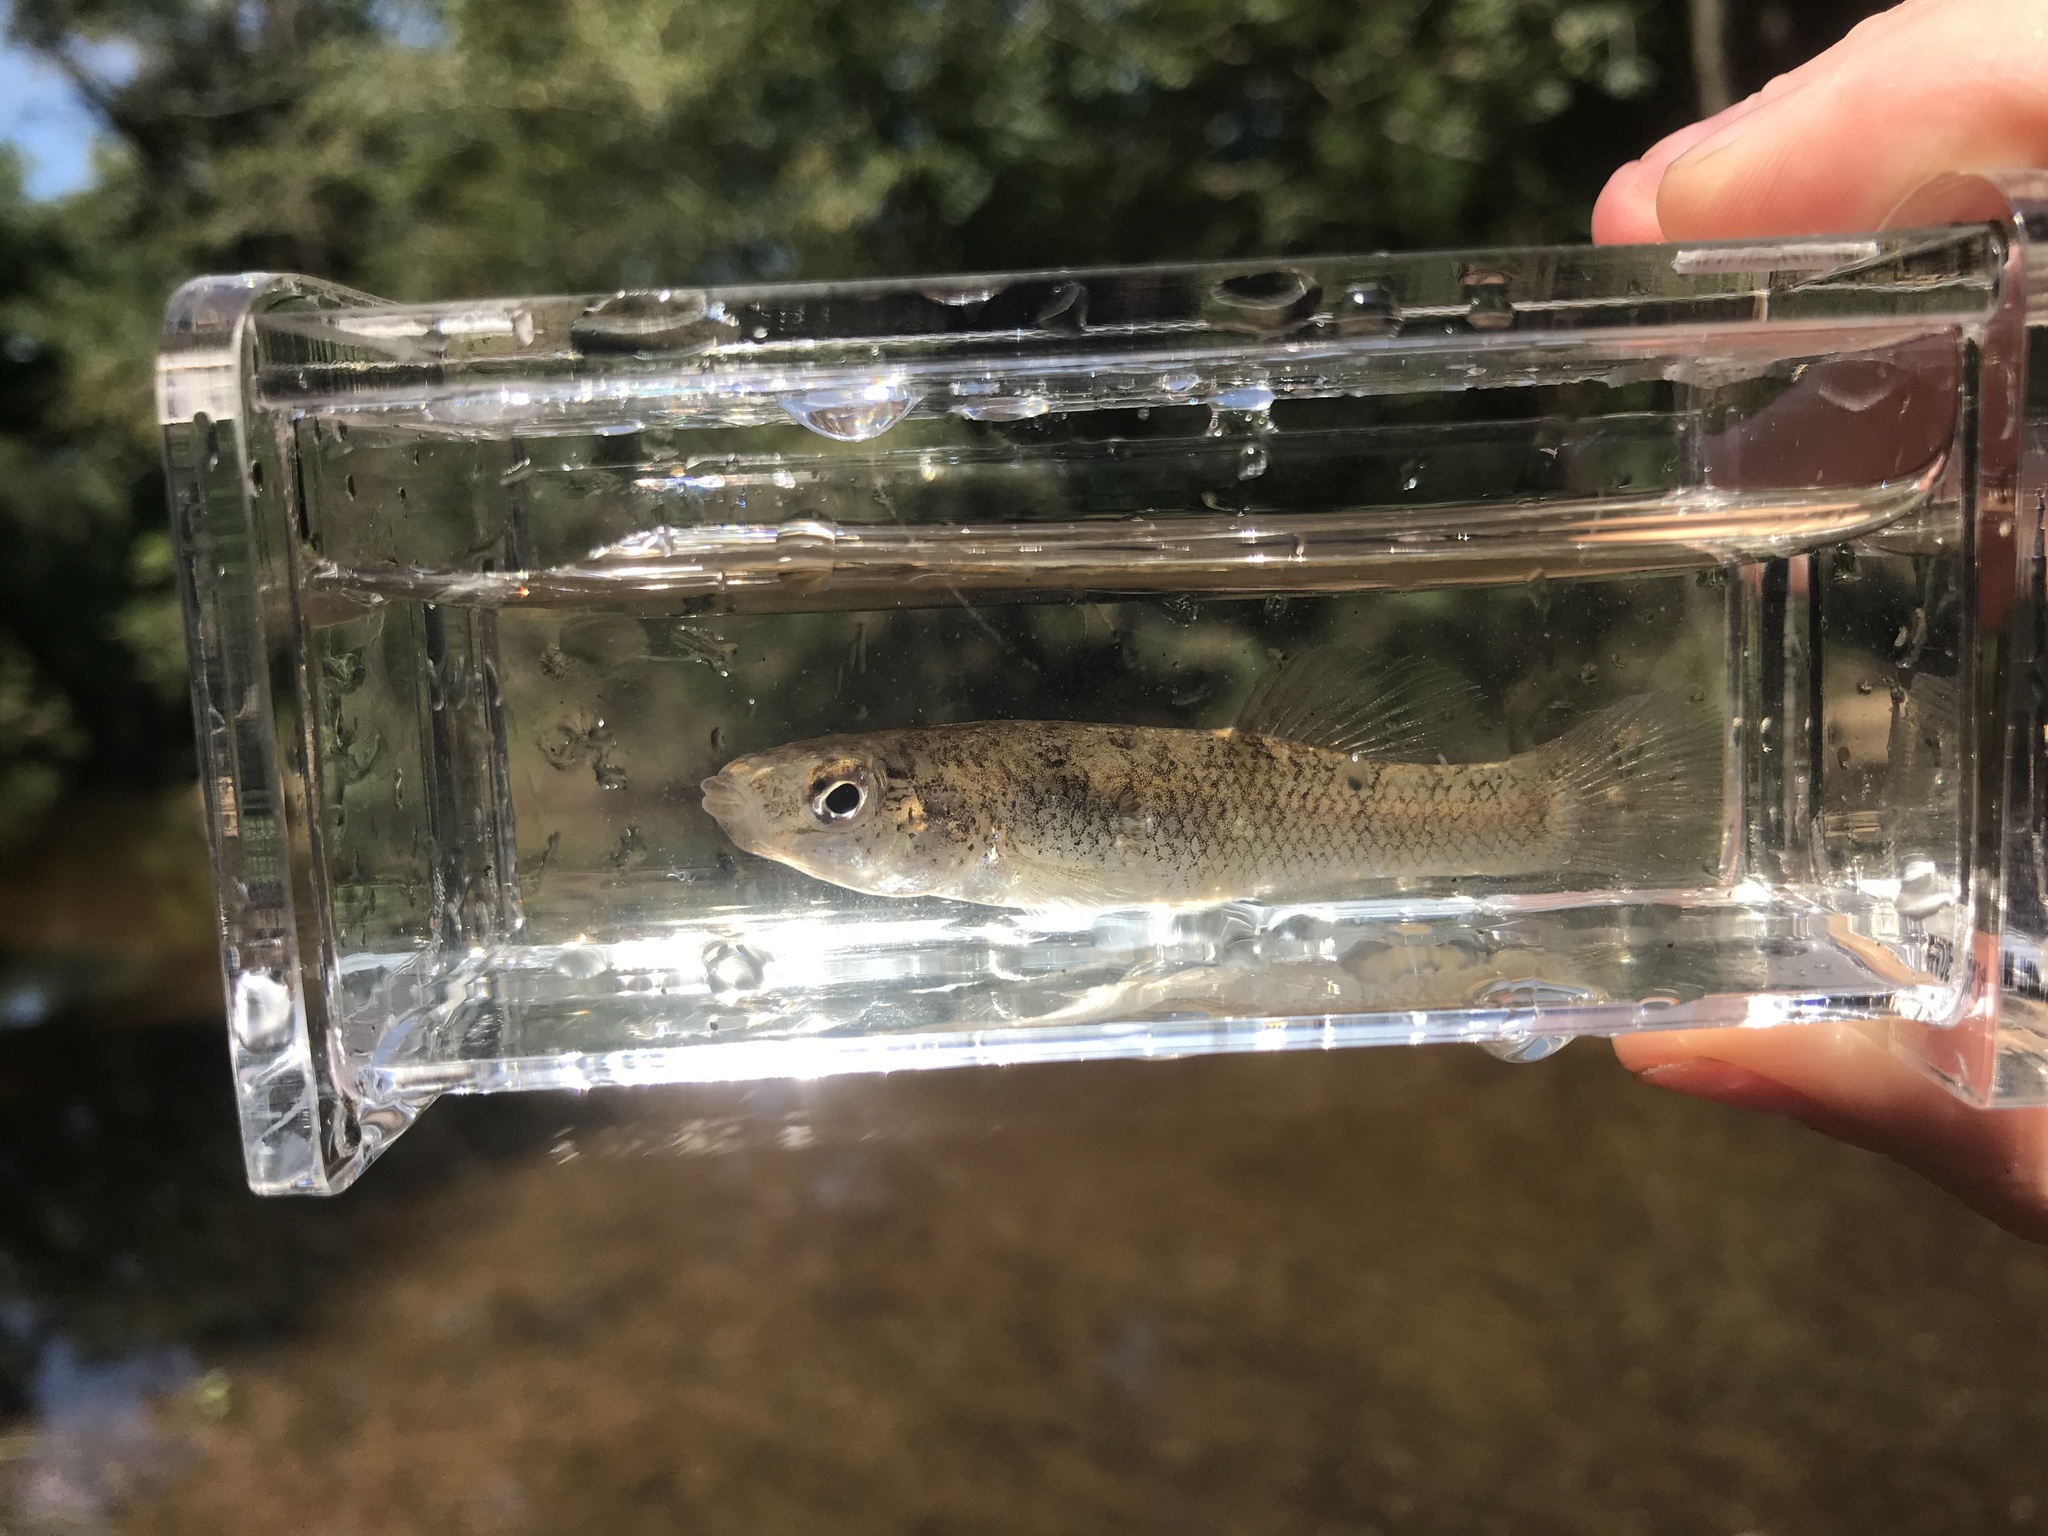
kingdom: Animalia
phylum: Chordata
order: Cyprinodontiformes
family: Fundulidae
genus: Fundulus
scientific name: Fundulus rathbuni
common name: Speckled killifish
